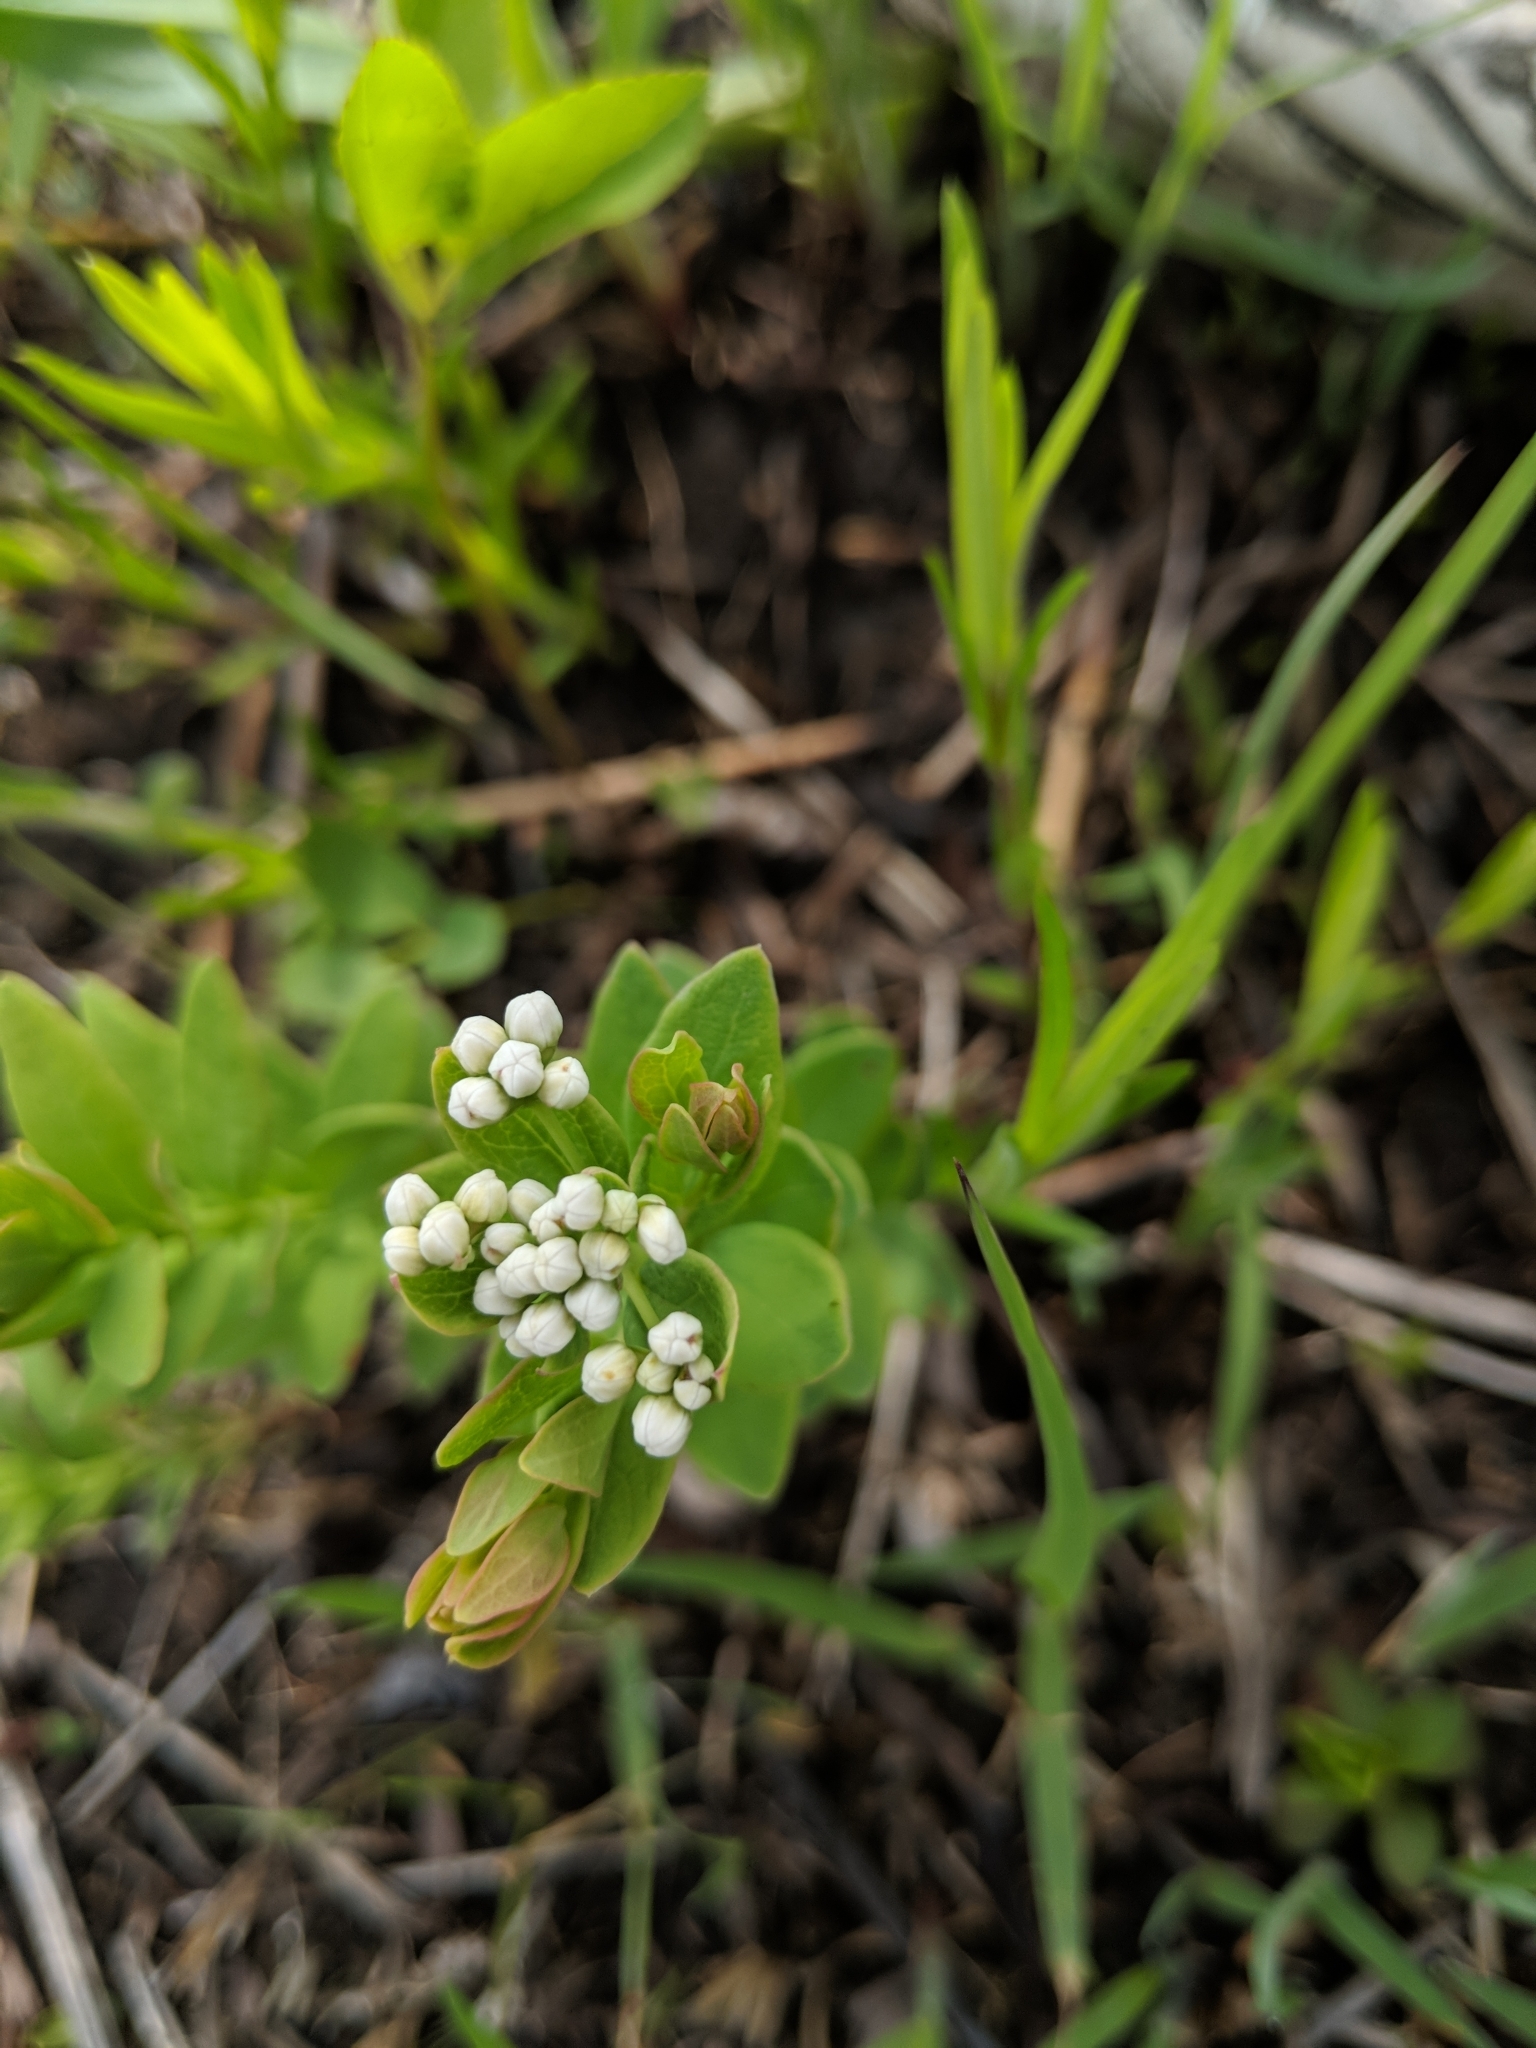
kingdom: Plantae
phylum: Tracheophyta
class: Magnoliopsida
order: Santalales
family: Comandraceae
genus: Comandra
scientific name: Comandra umbellata
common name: Bastard toadflax
